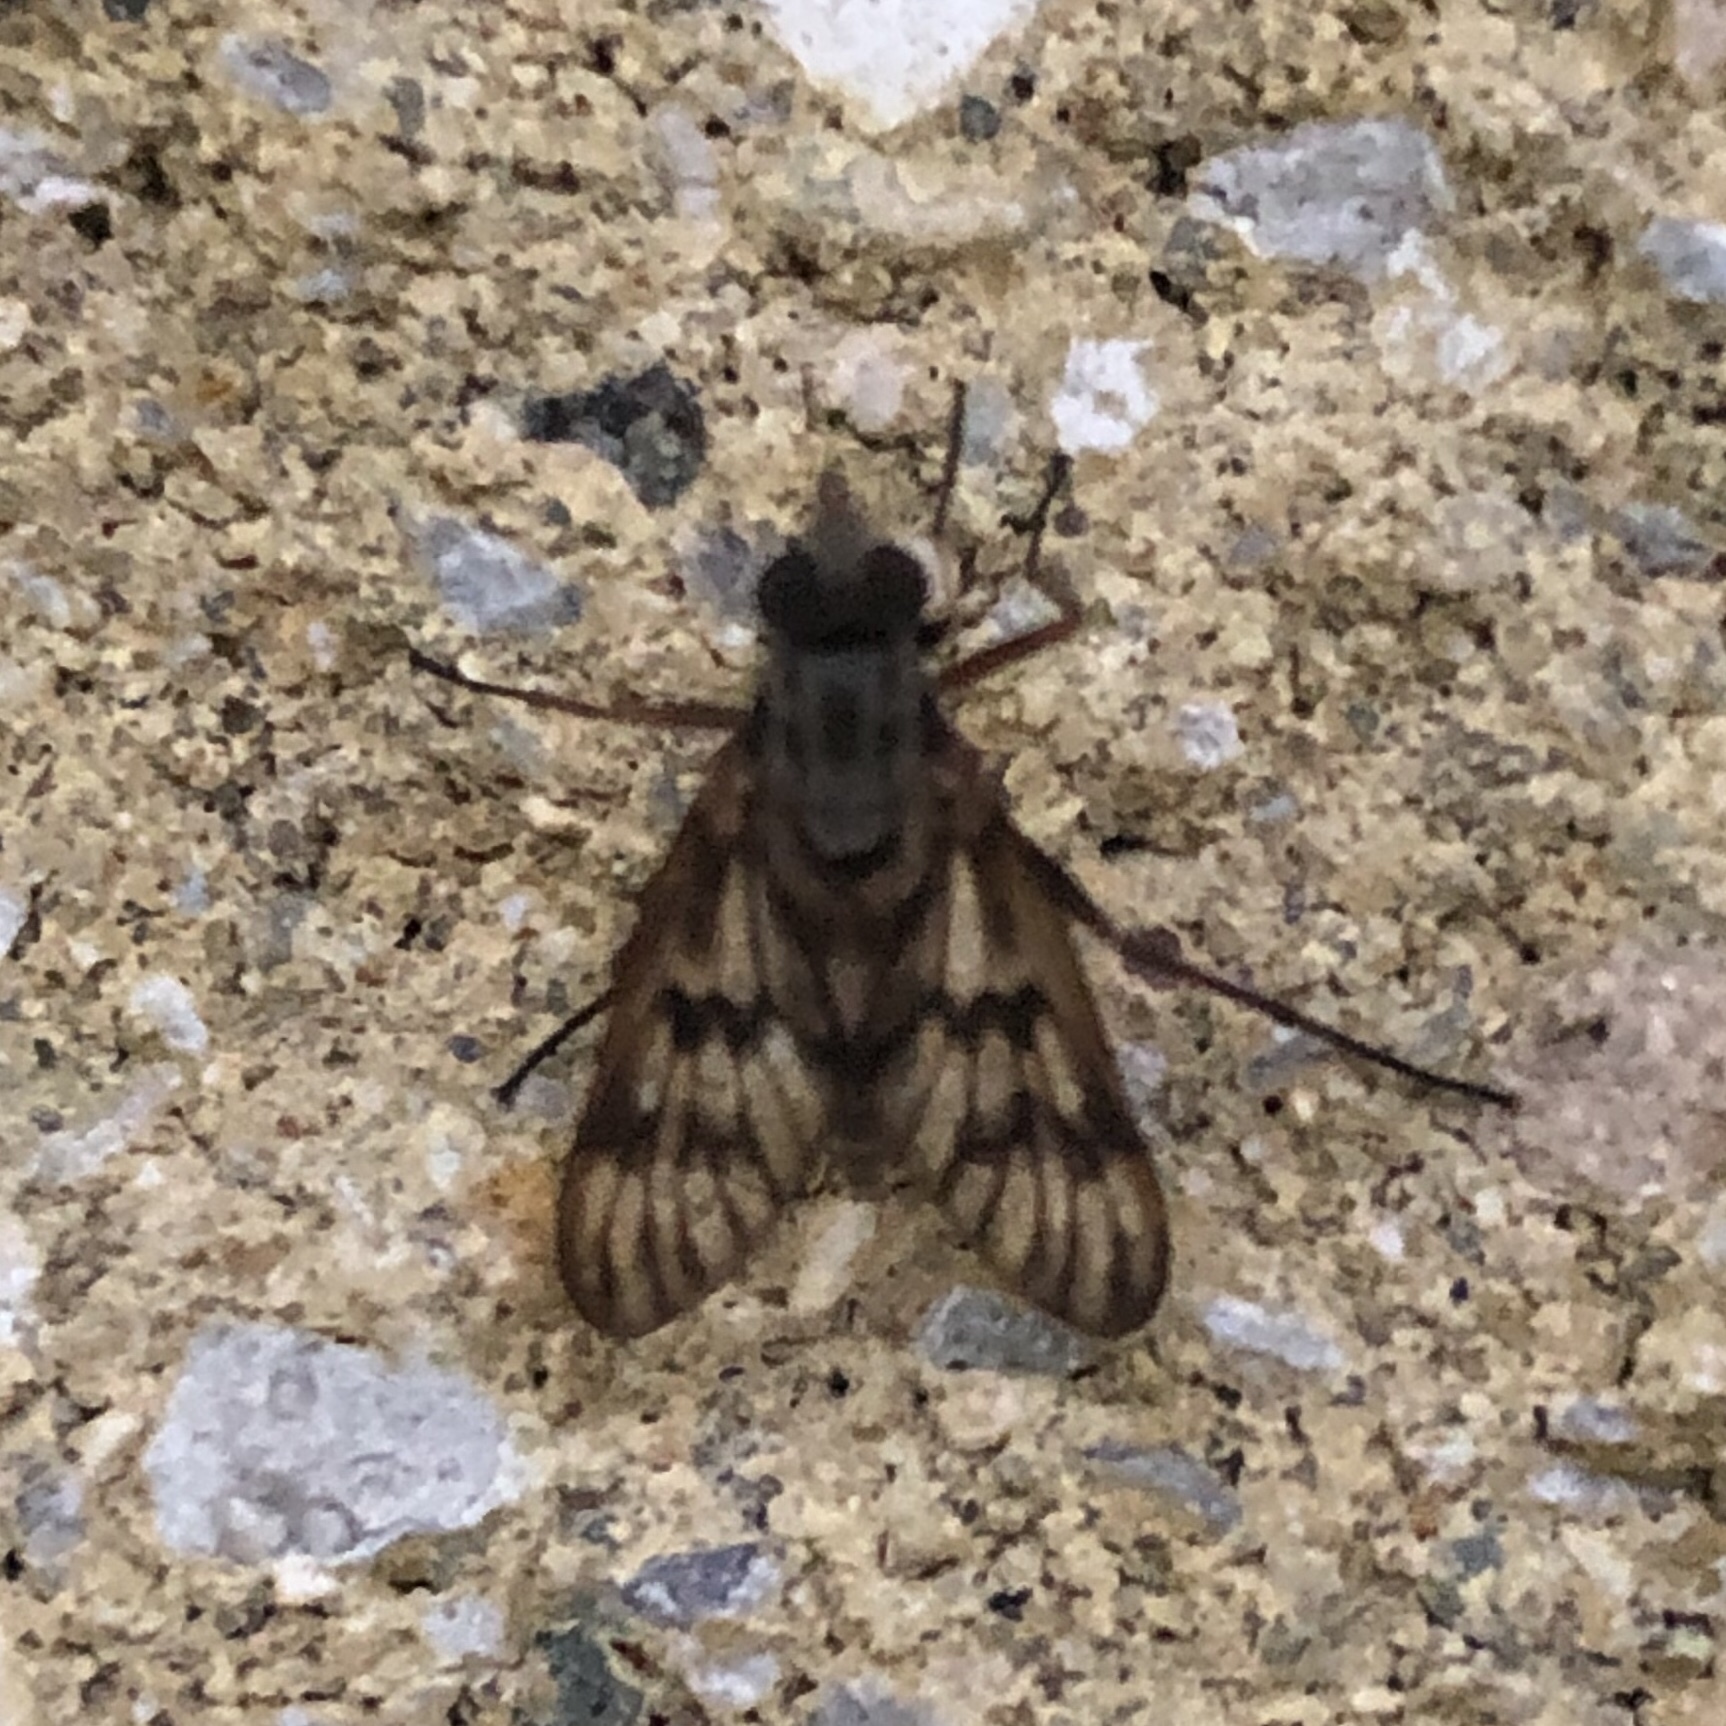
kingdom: Animalia
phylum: Arthropoda
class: Insecta
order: Diptera
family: Rhagionidae
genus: Rhagio
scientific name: Rhagio mystaceus
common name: Common snipe fly
